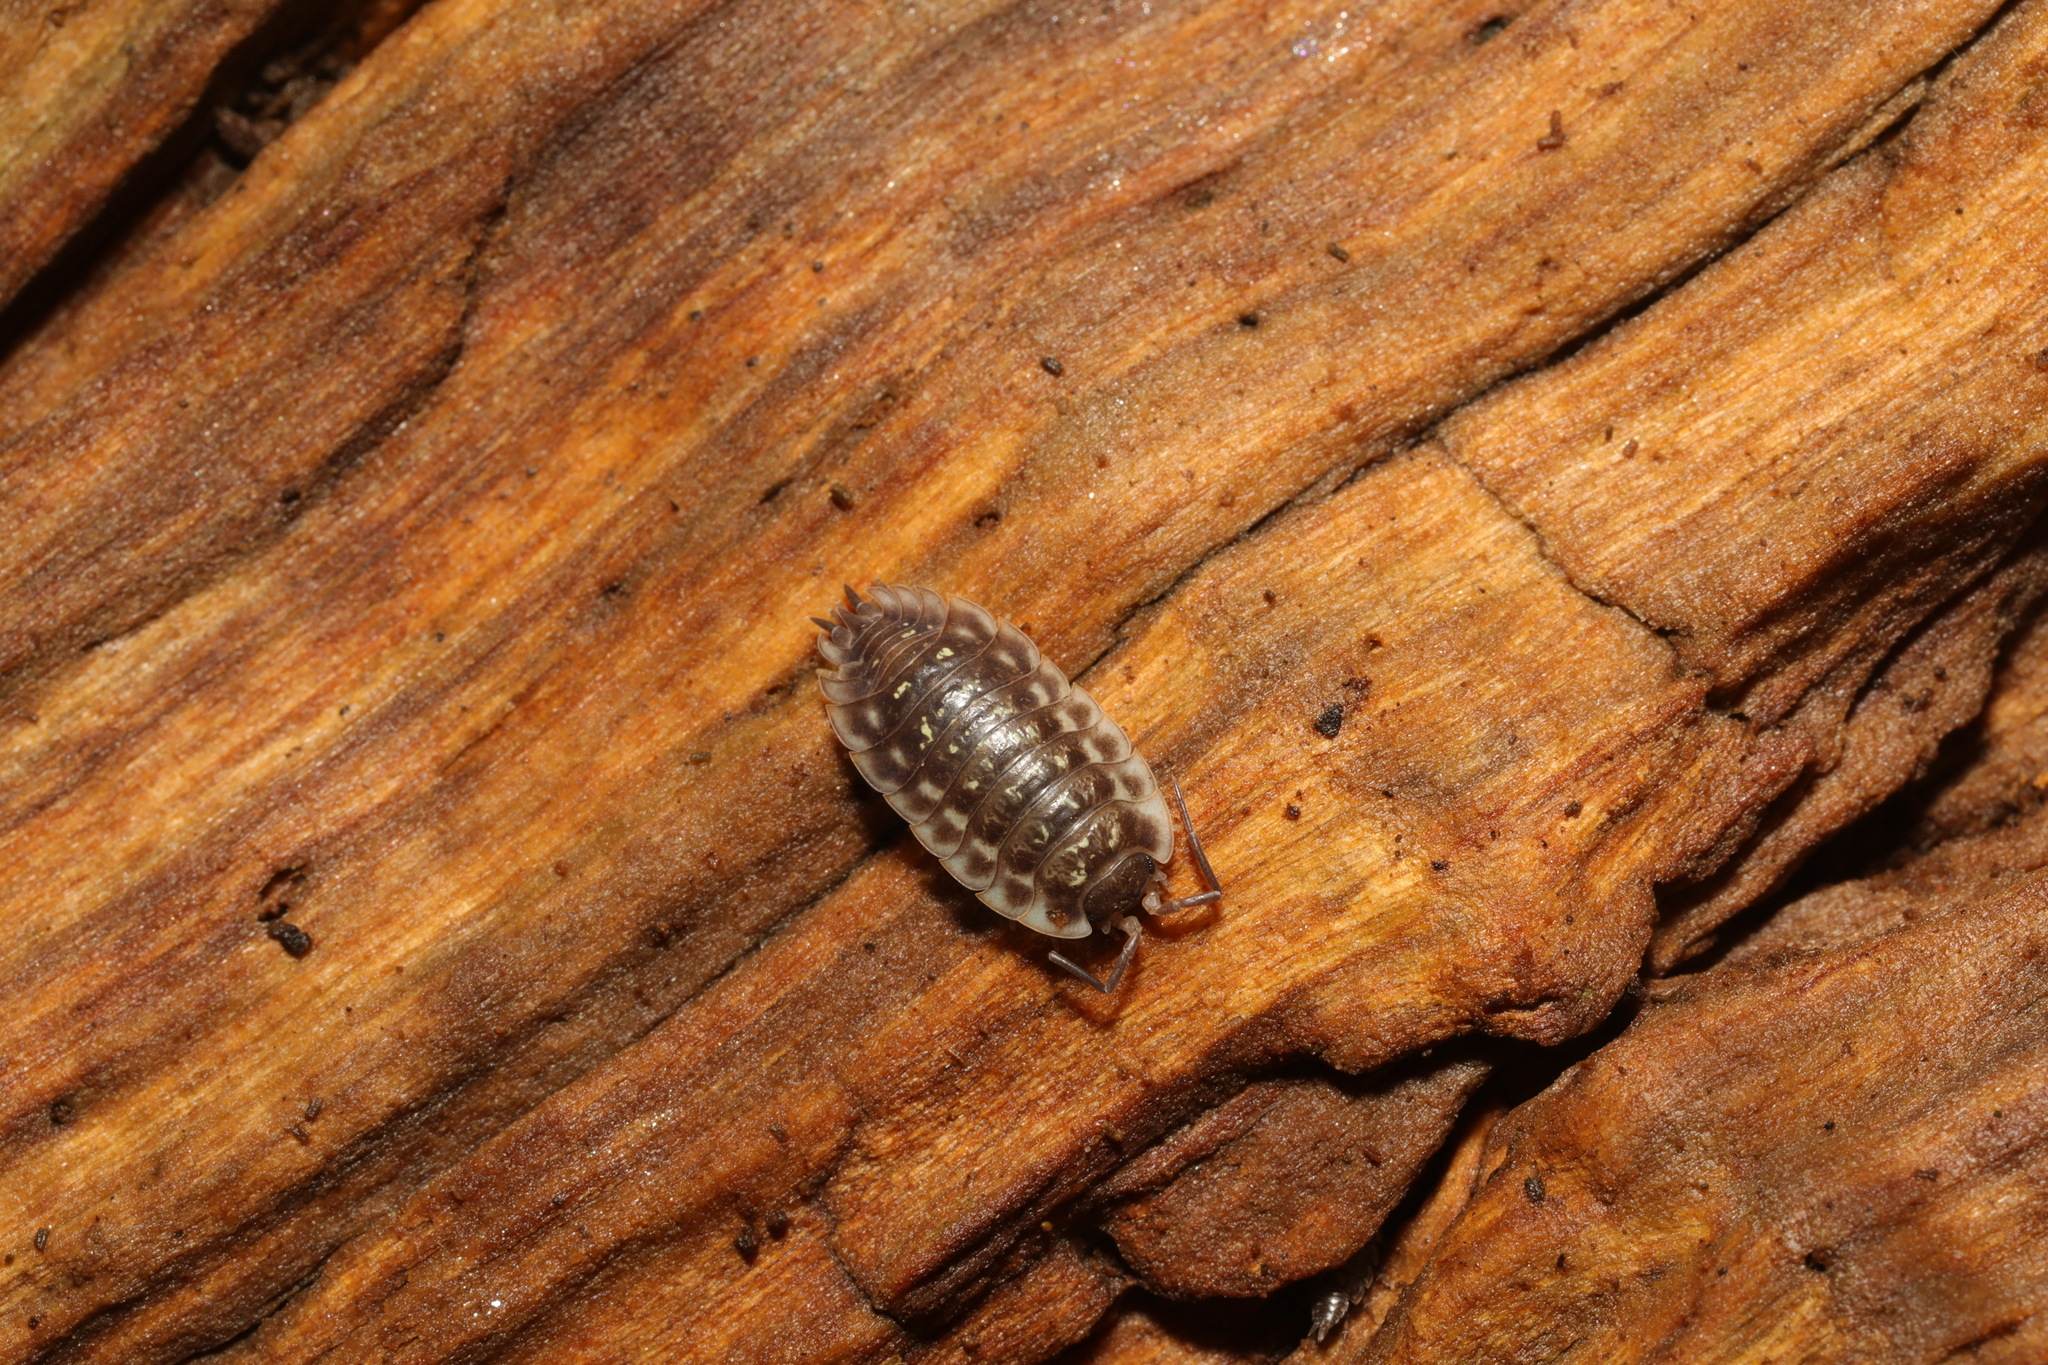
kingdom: Animalia
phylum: Arthropoda
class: Malacostraca
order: Isopoda
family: Oniscidae
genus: Oniscus
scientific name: Oniscus asellus
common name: Common shiny woodlouse
